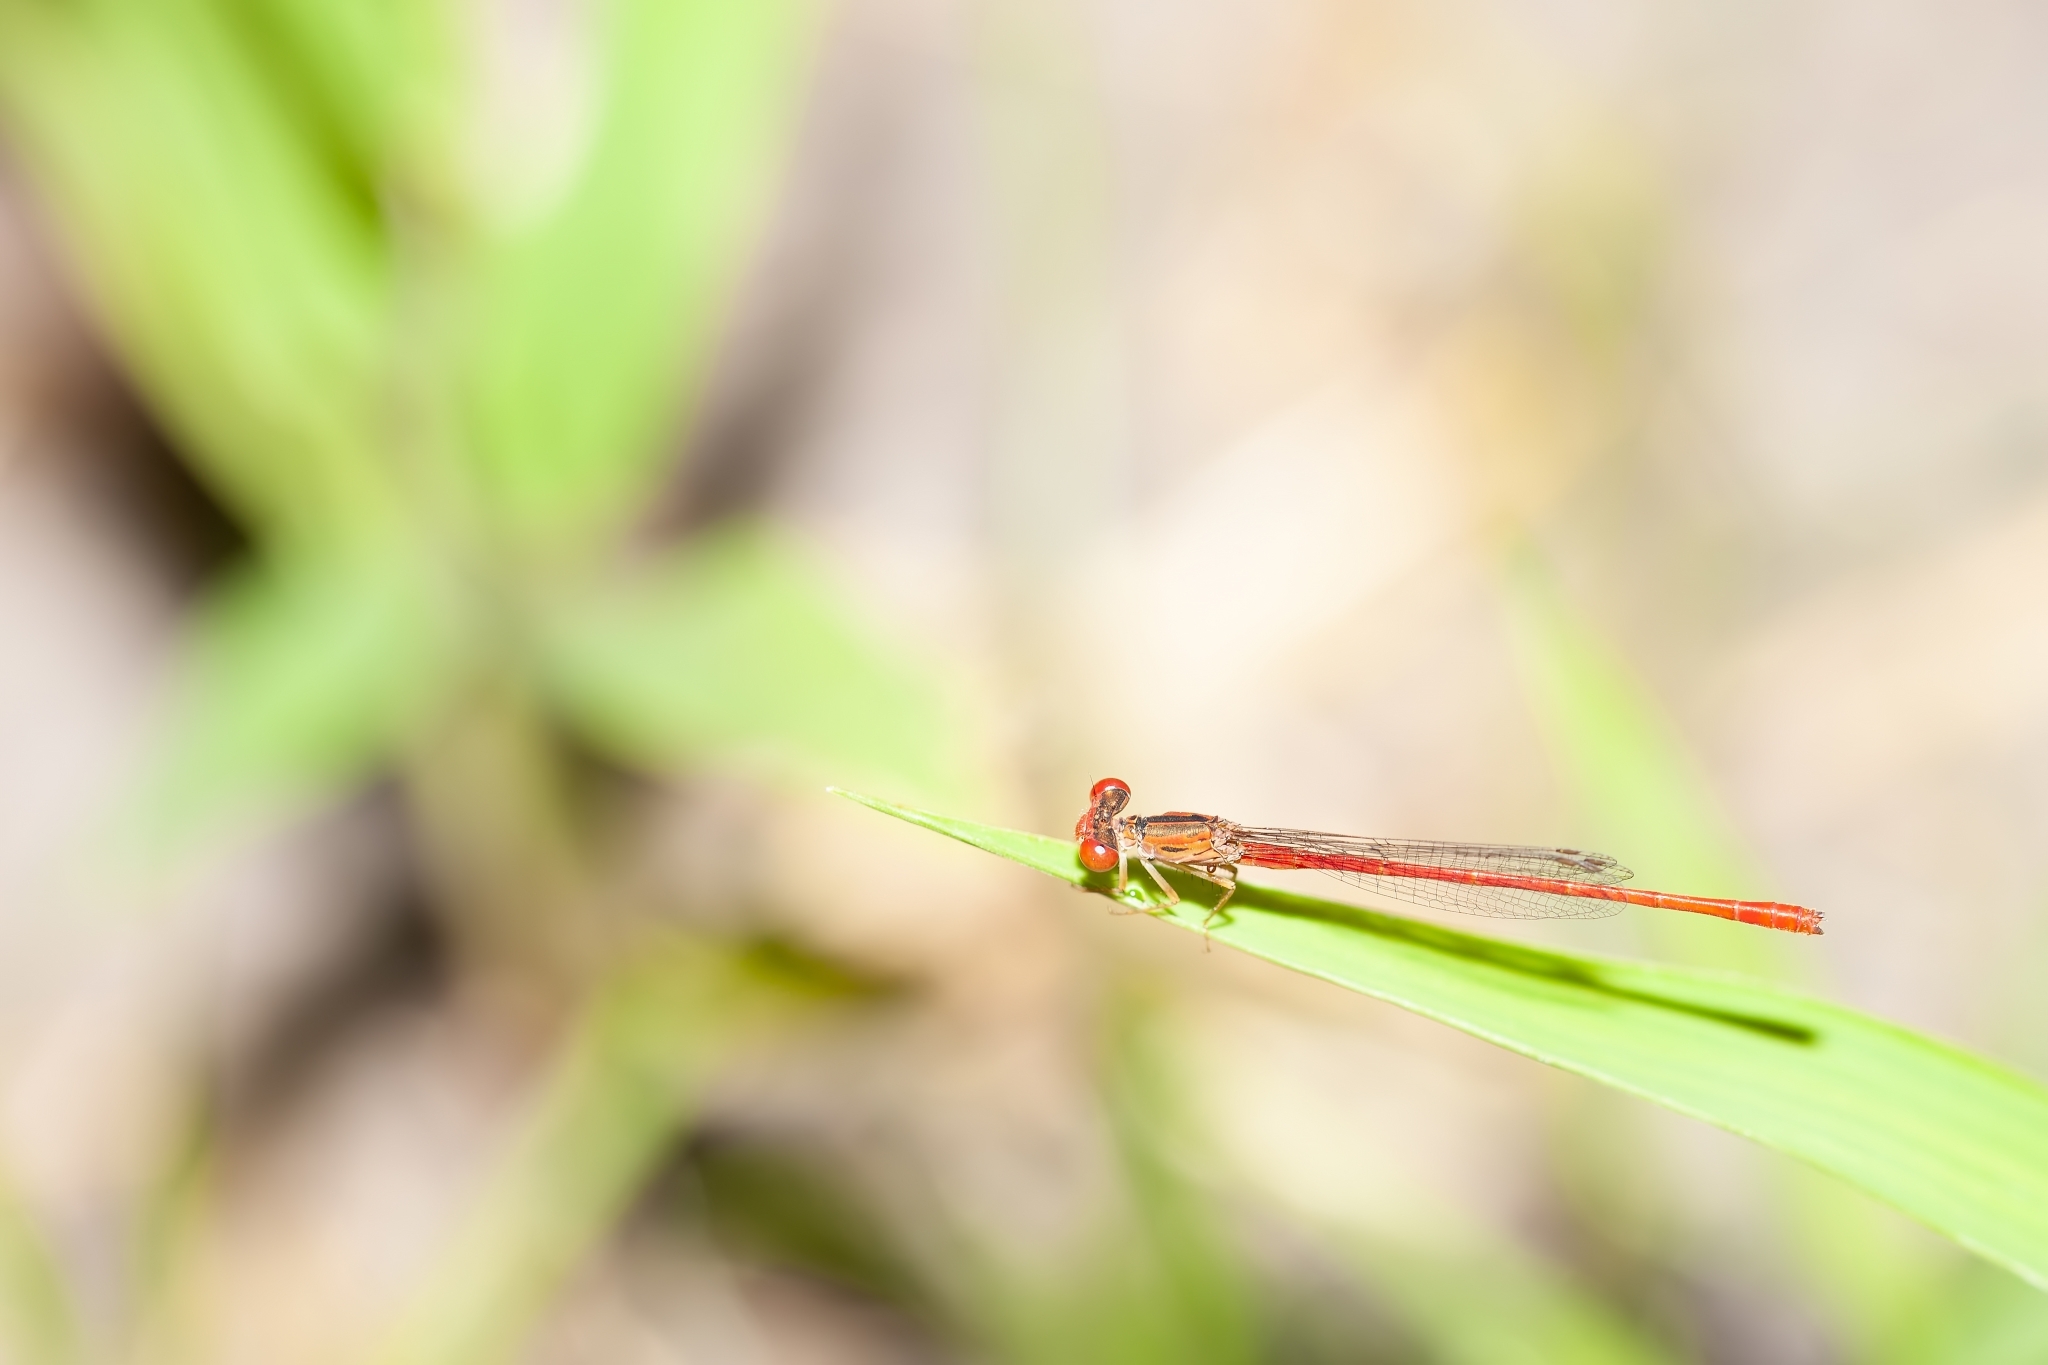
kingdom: Animalia
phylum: Arthropoda
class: Insecta
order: Odonata
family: Coenagrionidae
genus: Telebasis
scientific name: Telebasis byersi
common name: Duckweed firetail
